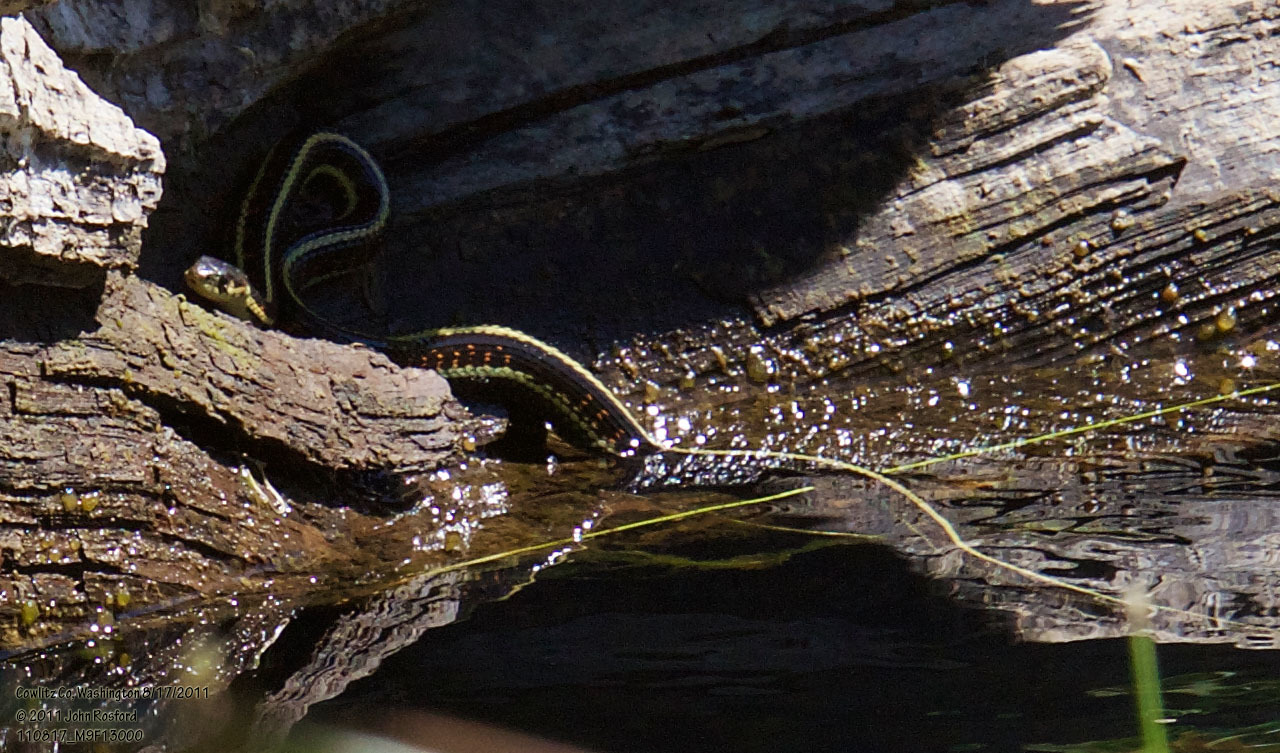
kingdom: Animalia
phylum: Chordata
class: Squamata
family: Colubridae
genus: Thamnophis
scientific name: Thamnophis sirtalis
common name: Common garter snake
